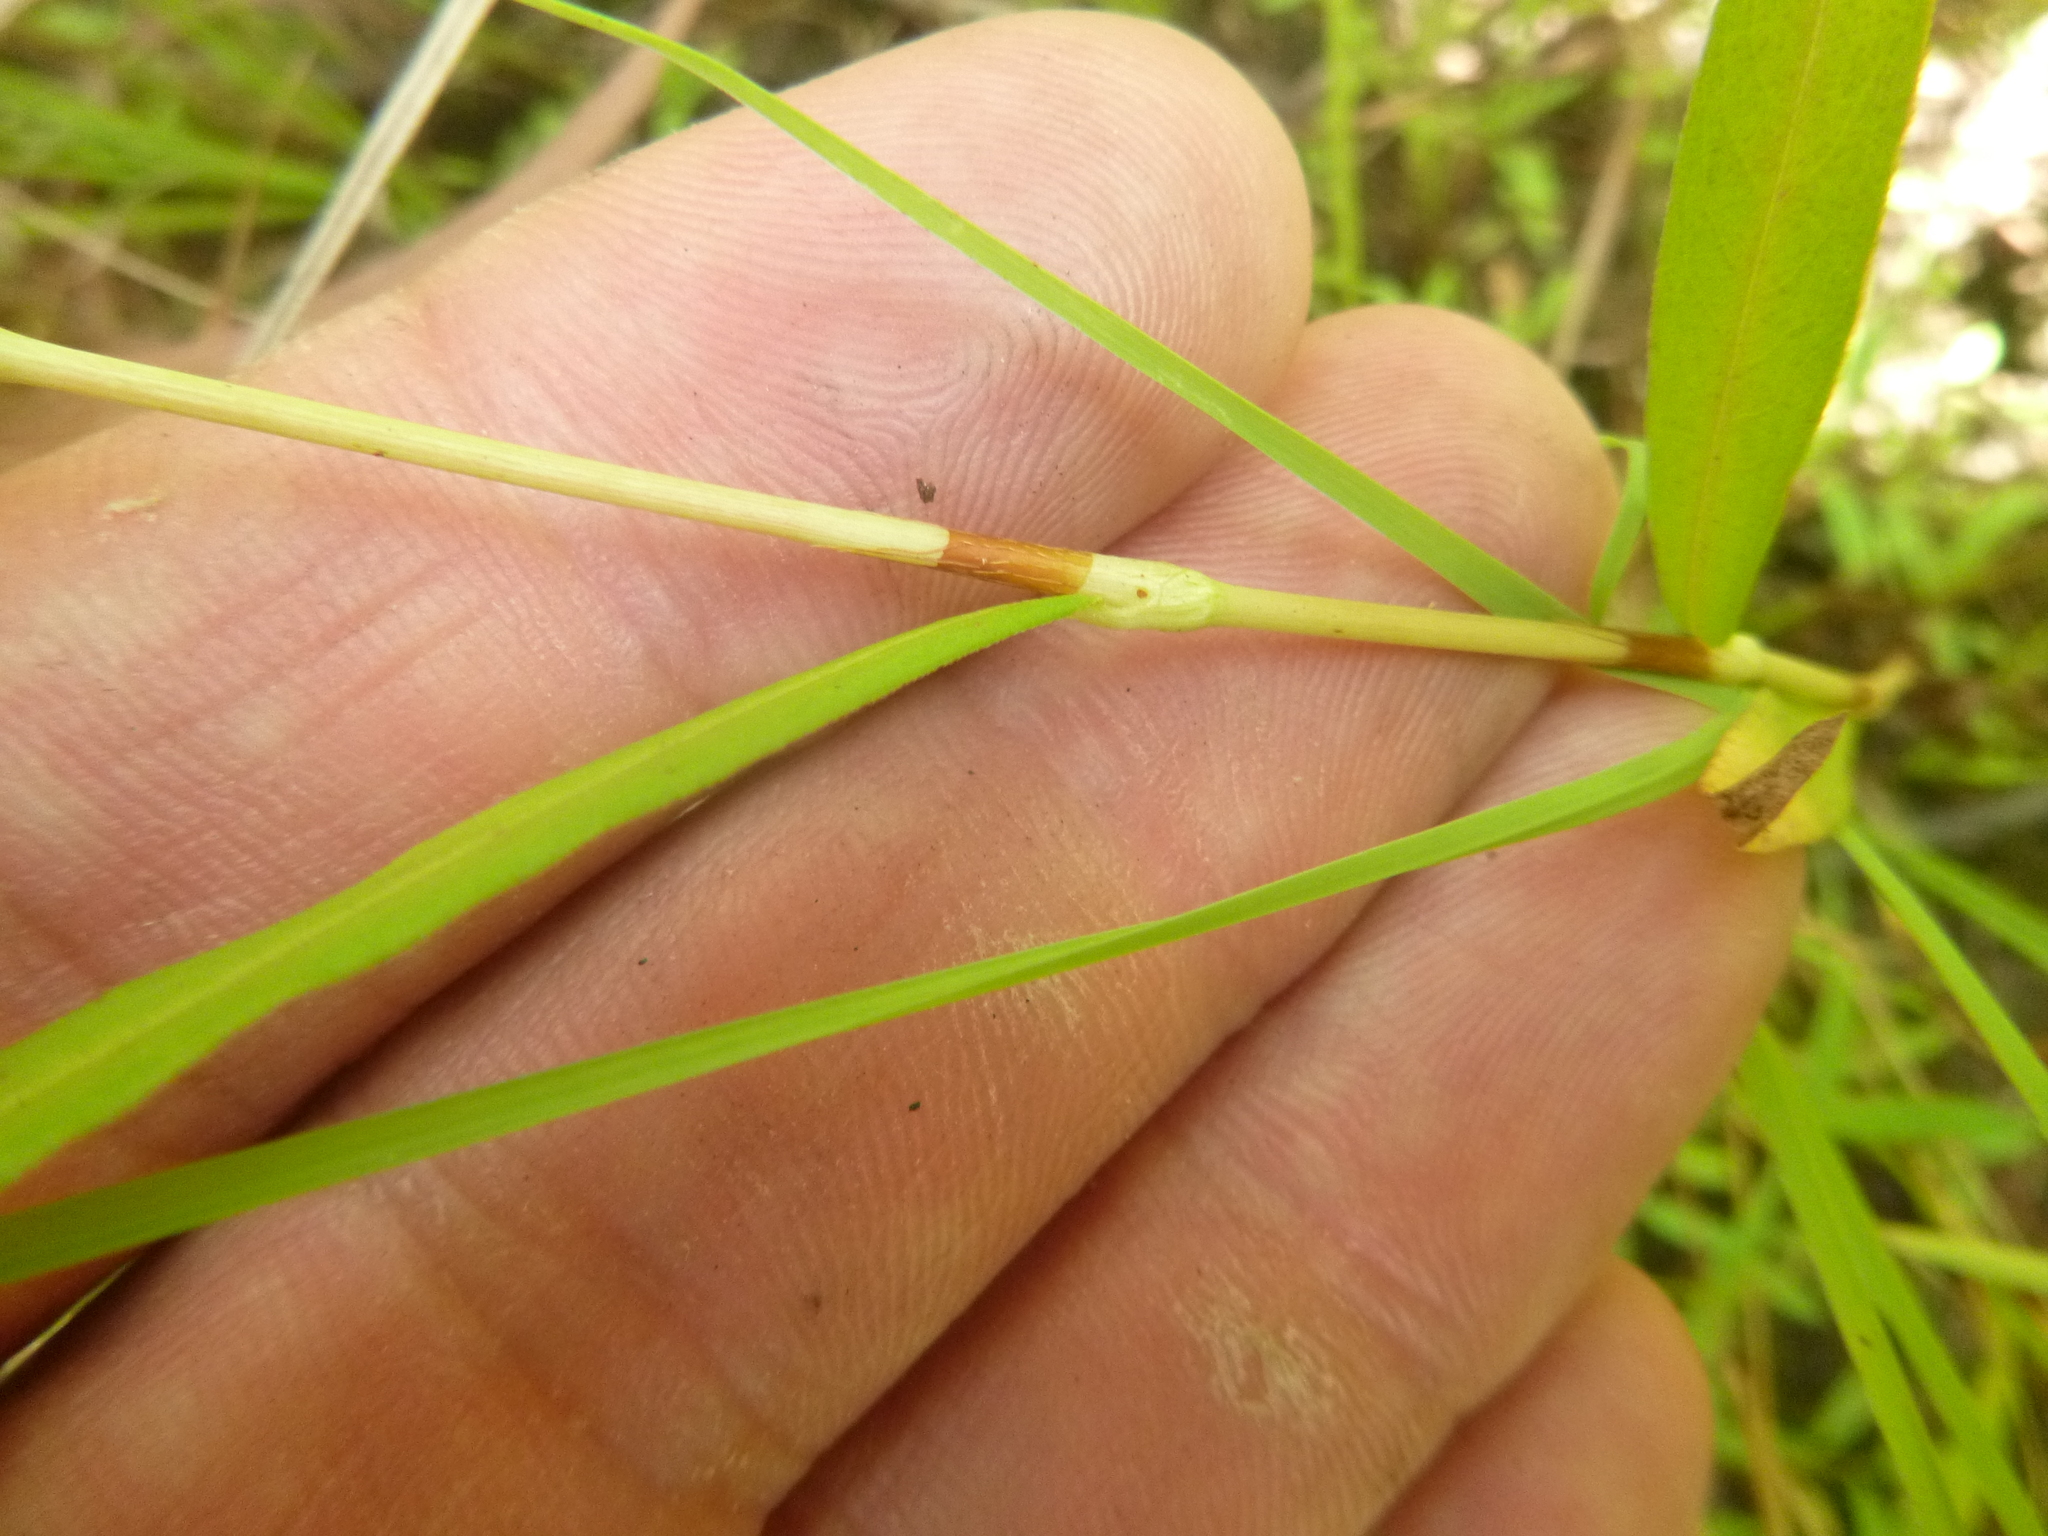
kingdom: Plantae
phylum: Tracheophyta
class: Magnoliopsida
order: Caryophyllales
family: Polygonaceae
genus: Persicaria
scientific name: Persicaria hydropiperoides
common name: Swamp smartweed
